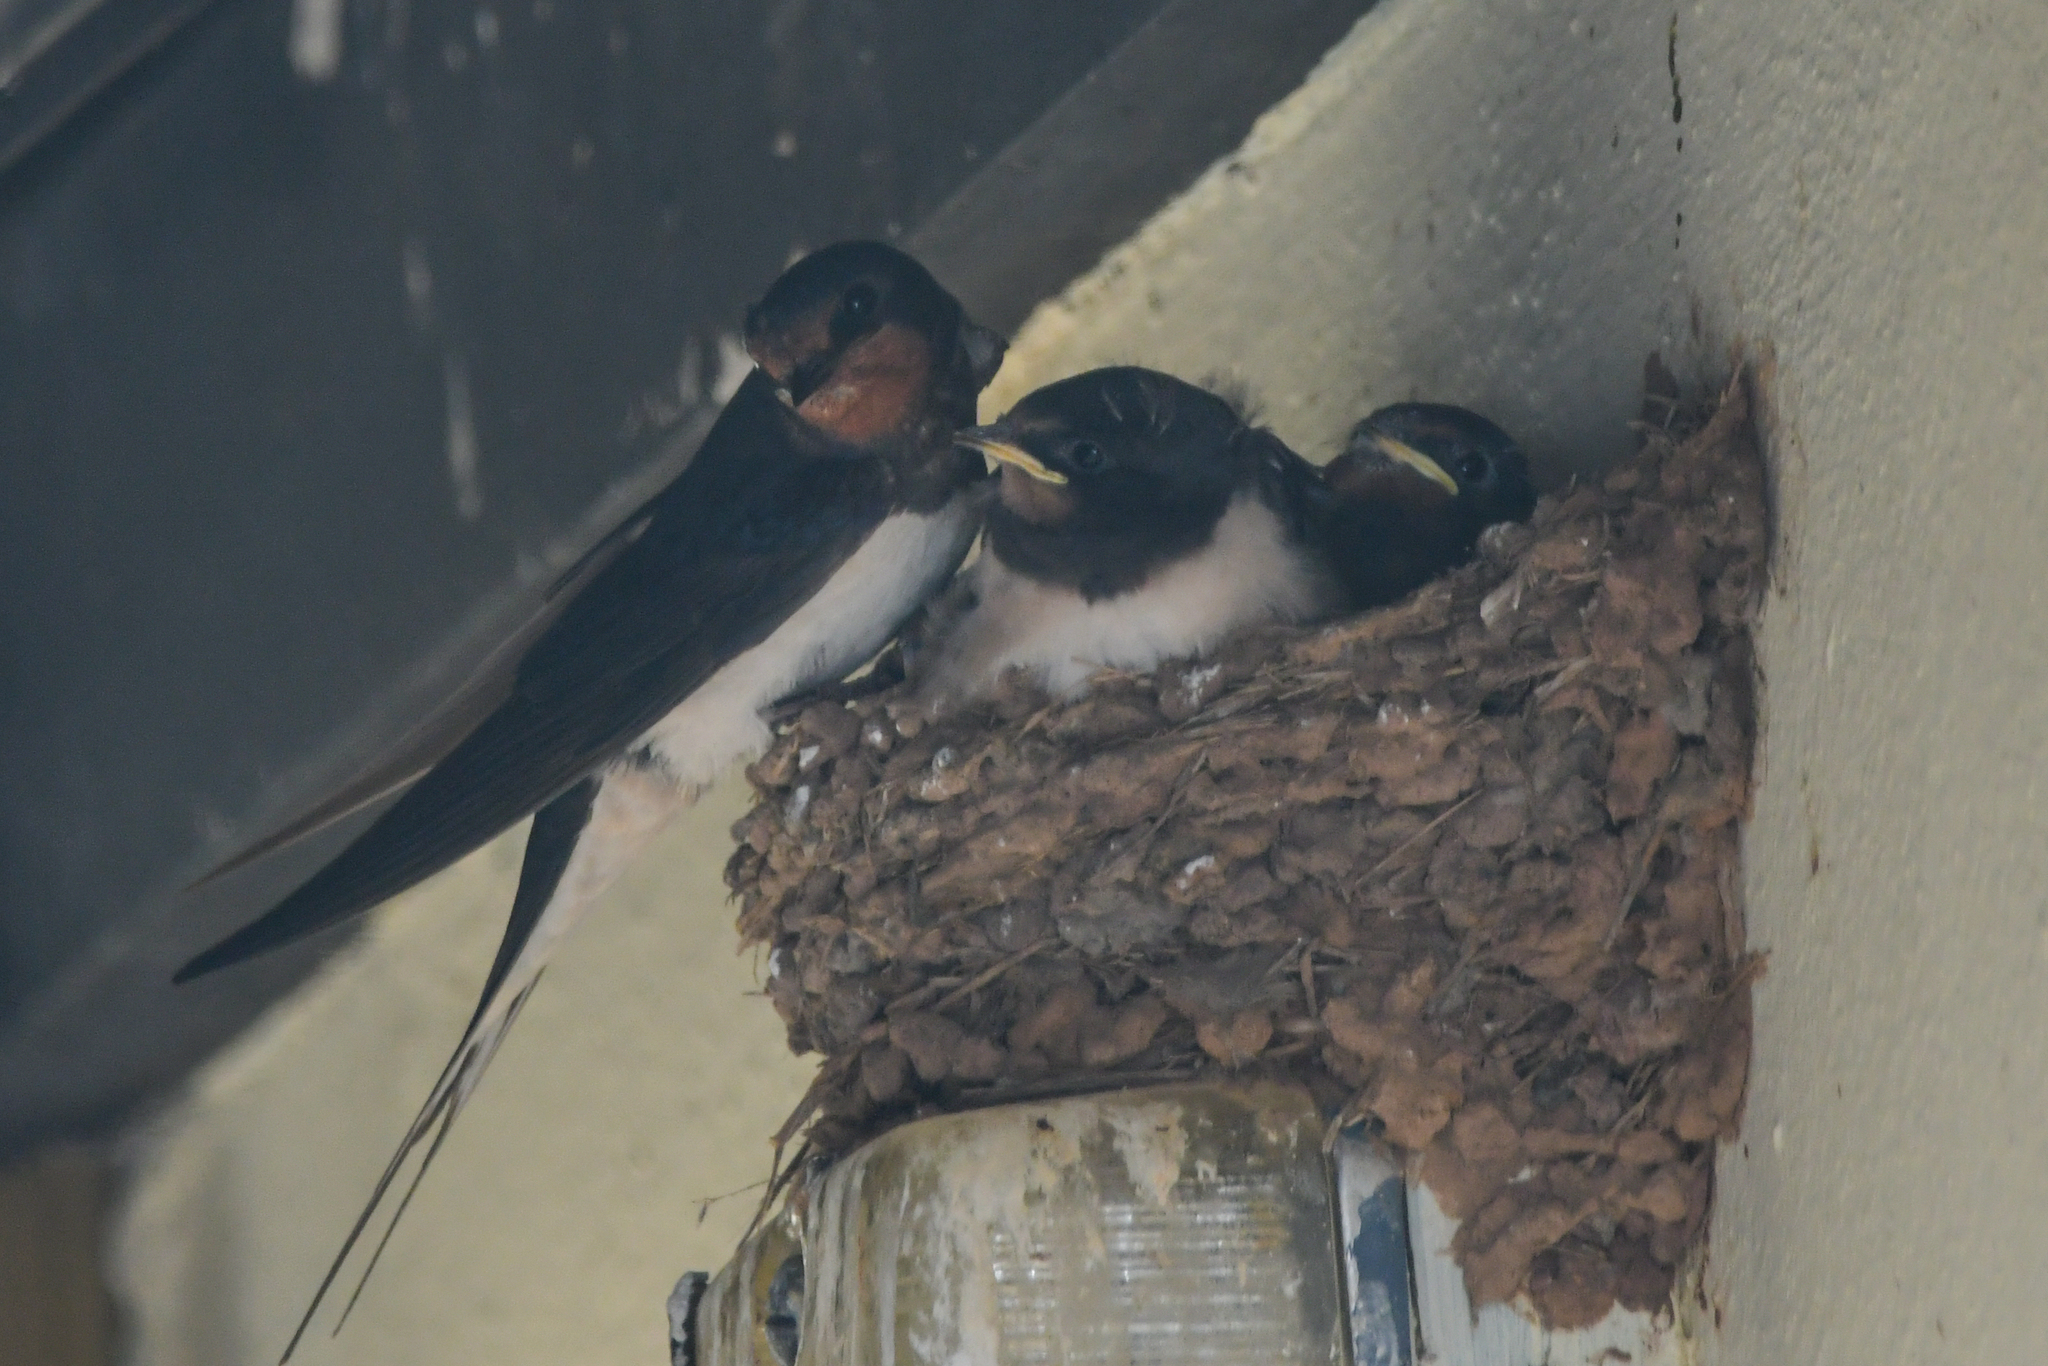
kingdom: Animalia
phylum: Chordata
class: Aves
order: Passeriformes
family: Hirundinidae
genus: Hirundo
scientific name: Hirundo rustica
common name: Barn swallow
